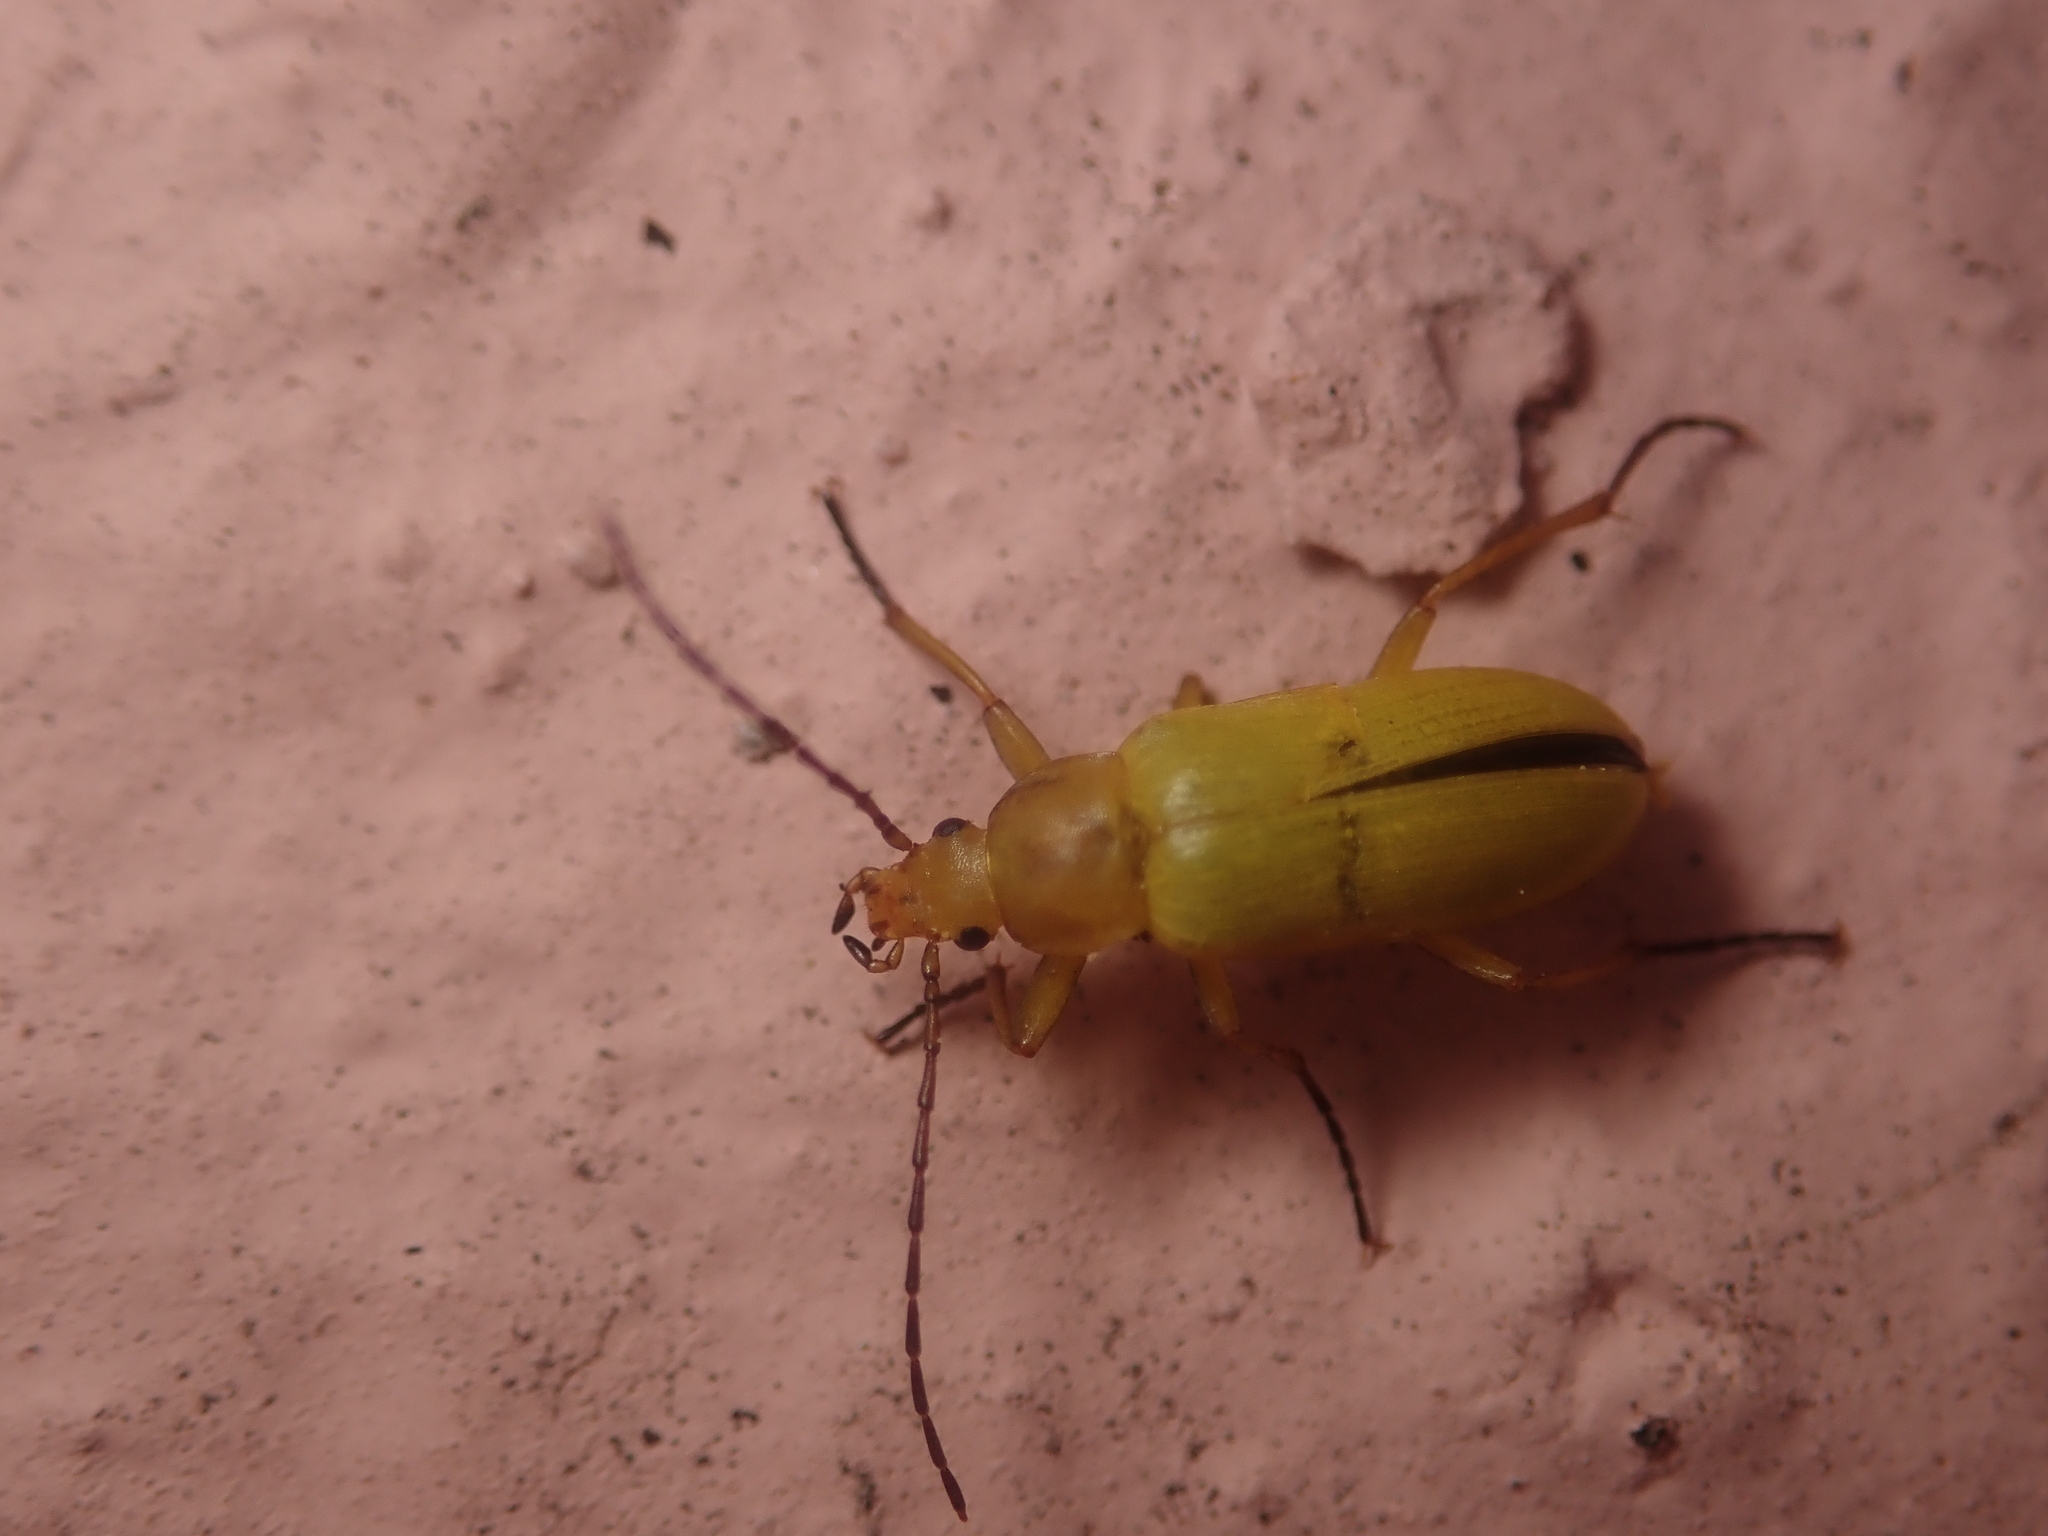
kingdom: Animalia
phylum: Arthropoda
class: Insecta
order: Coleoptera
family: Tenebrionidae
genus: Cteniopus
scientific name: Cteniopus sulphureus
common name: Sulphur beetle
